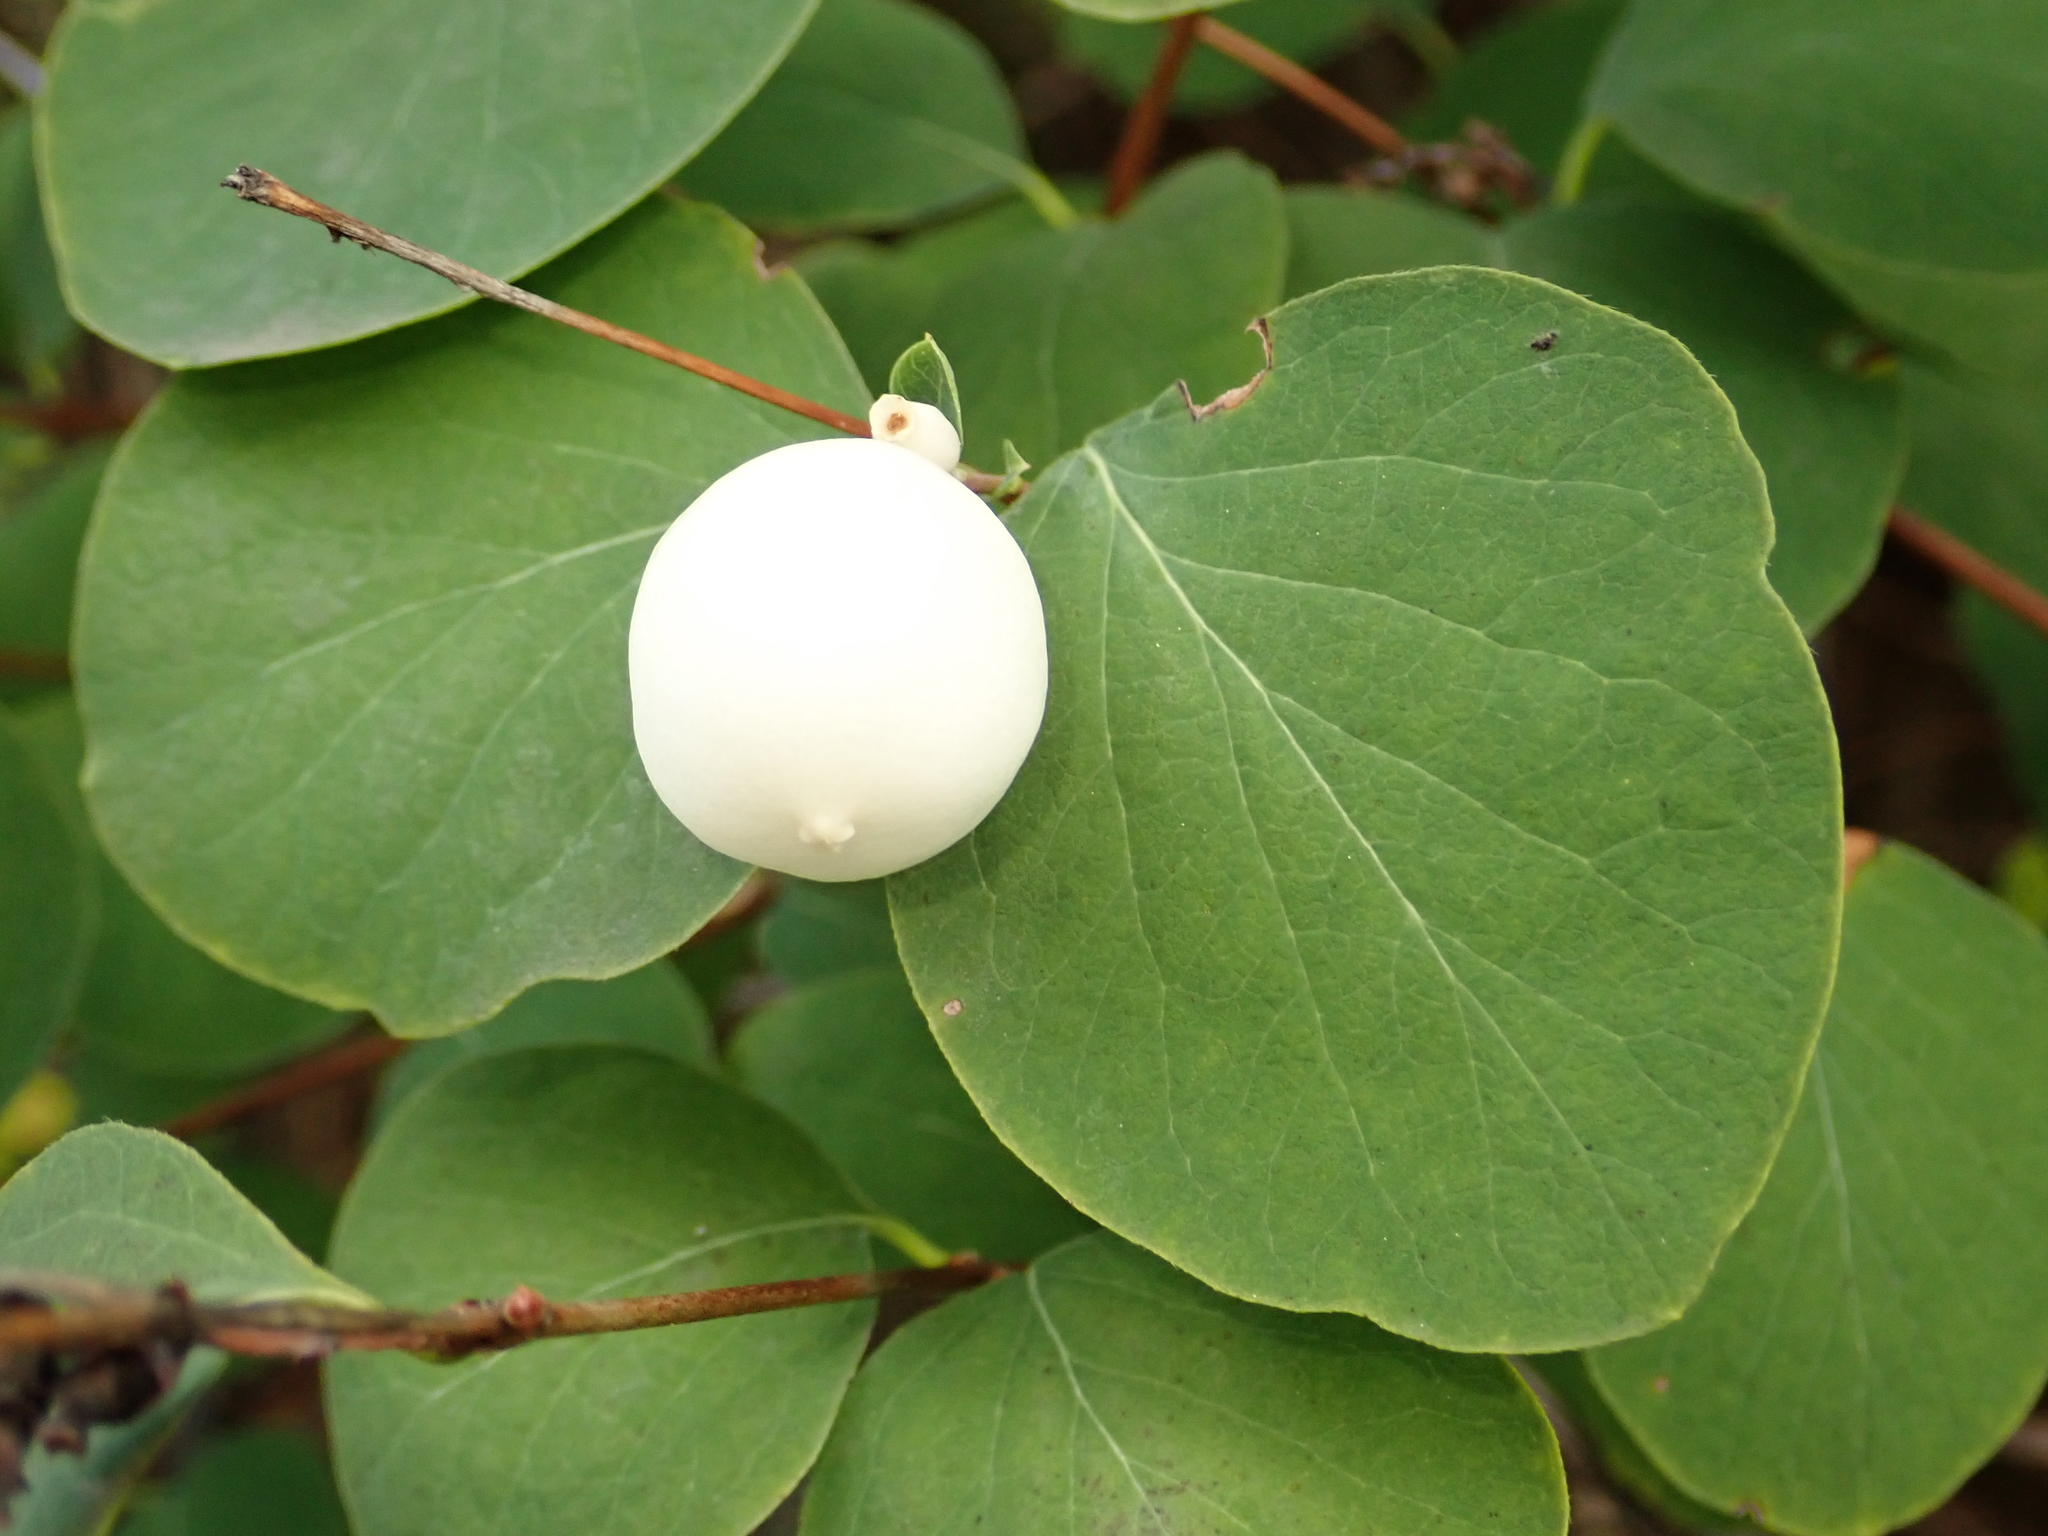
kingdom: Plantae
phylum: Tracheophyta
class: Magnoliopsida
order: Dipsacales
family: Caprifoliaceae
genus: Symphoricarpos
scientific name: Symphoricarpos albus
